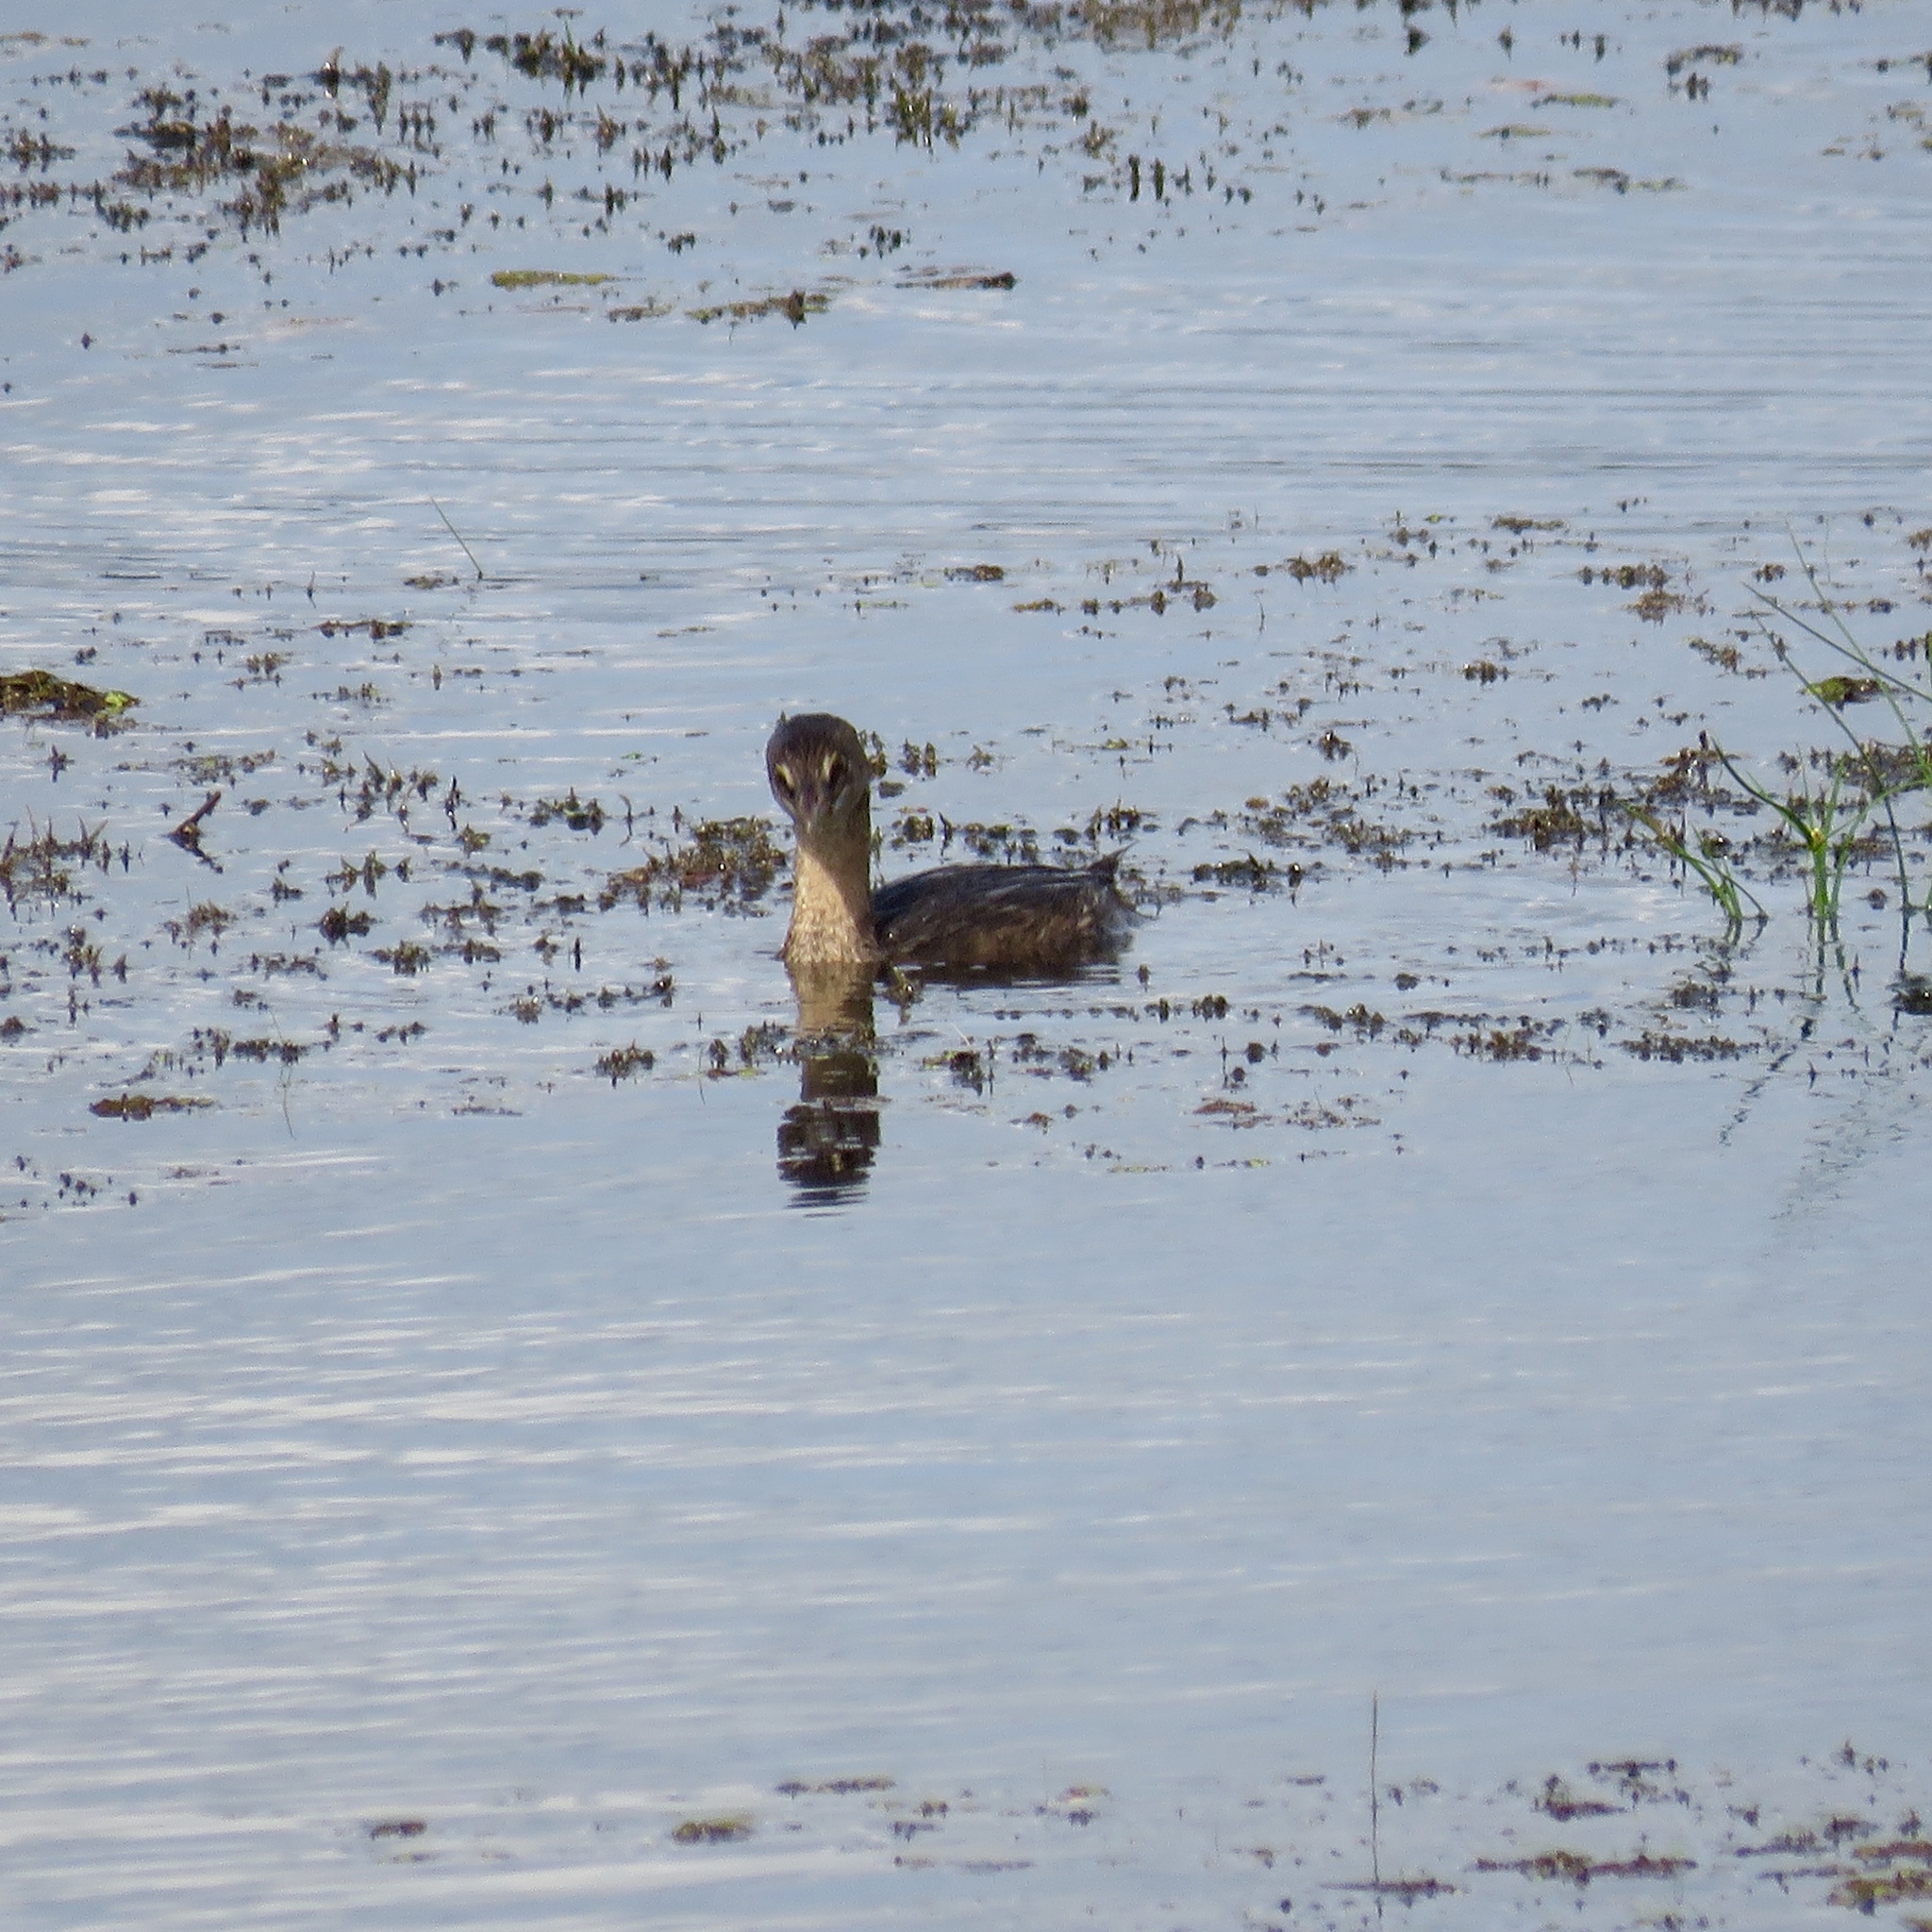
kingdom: Animalia
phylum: Chordata
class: Aves
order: Podicipediformes
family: Podicipedidae
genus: Podilymbus
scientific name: Podilymbus podiceps
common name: Pied-billed grebe
